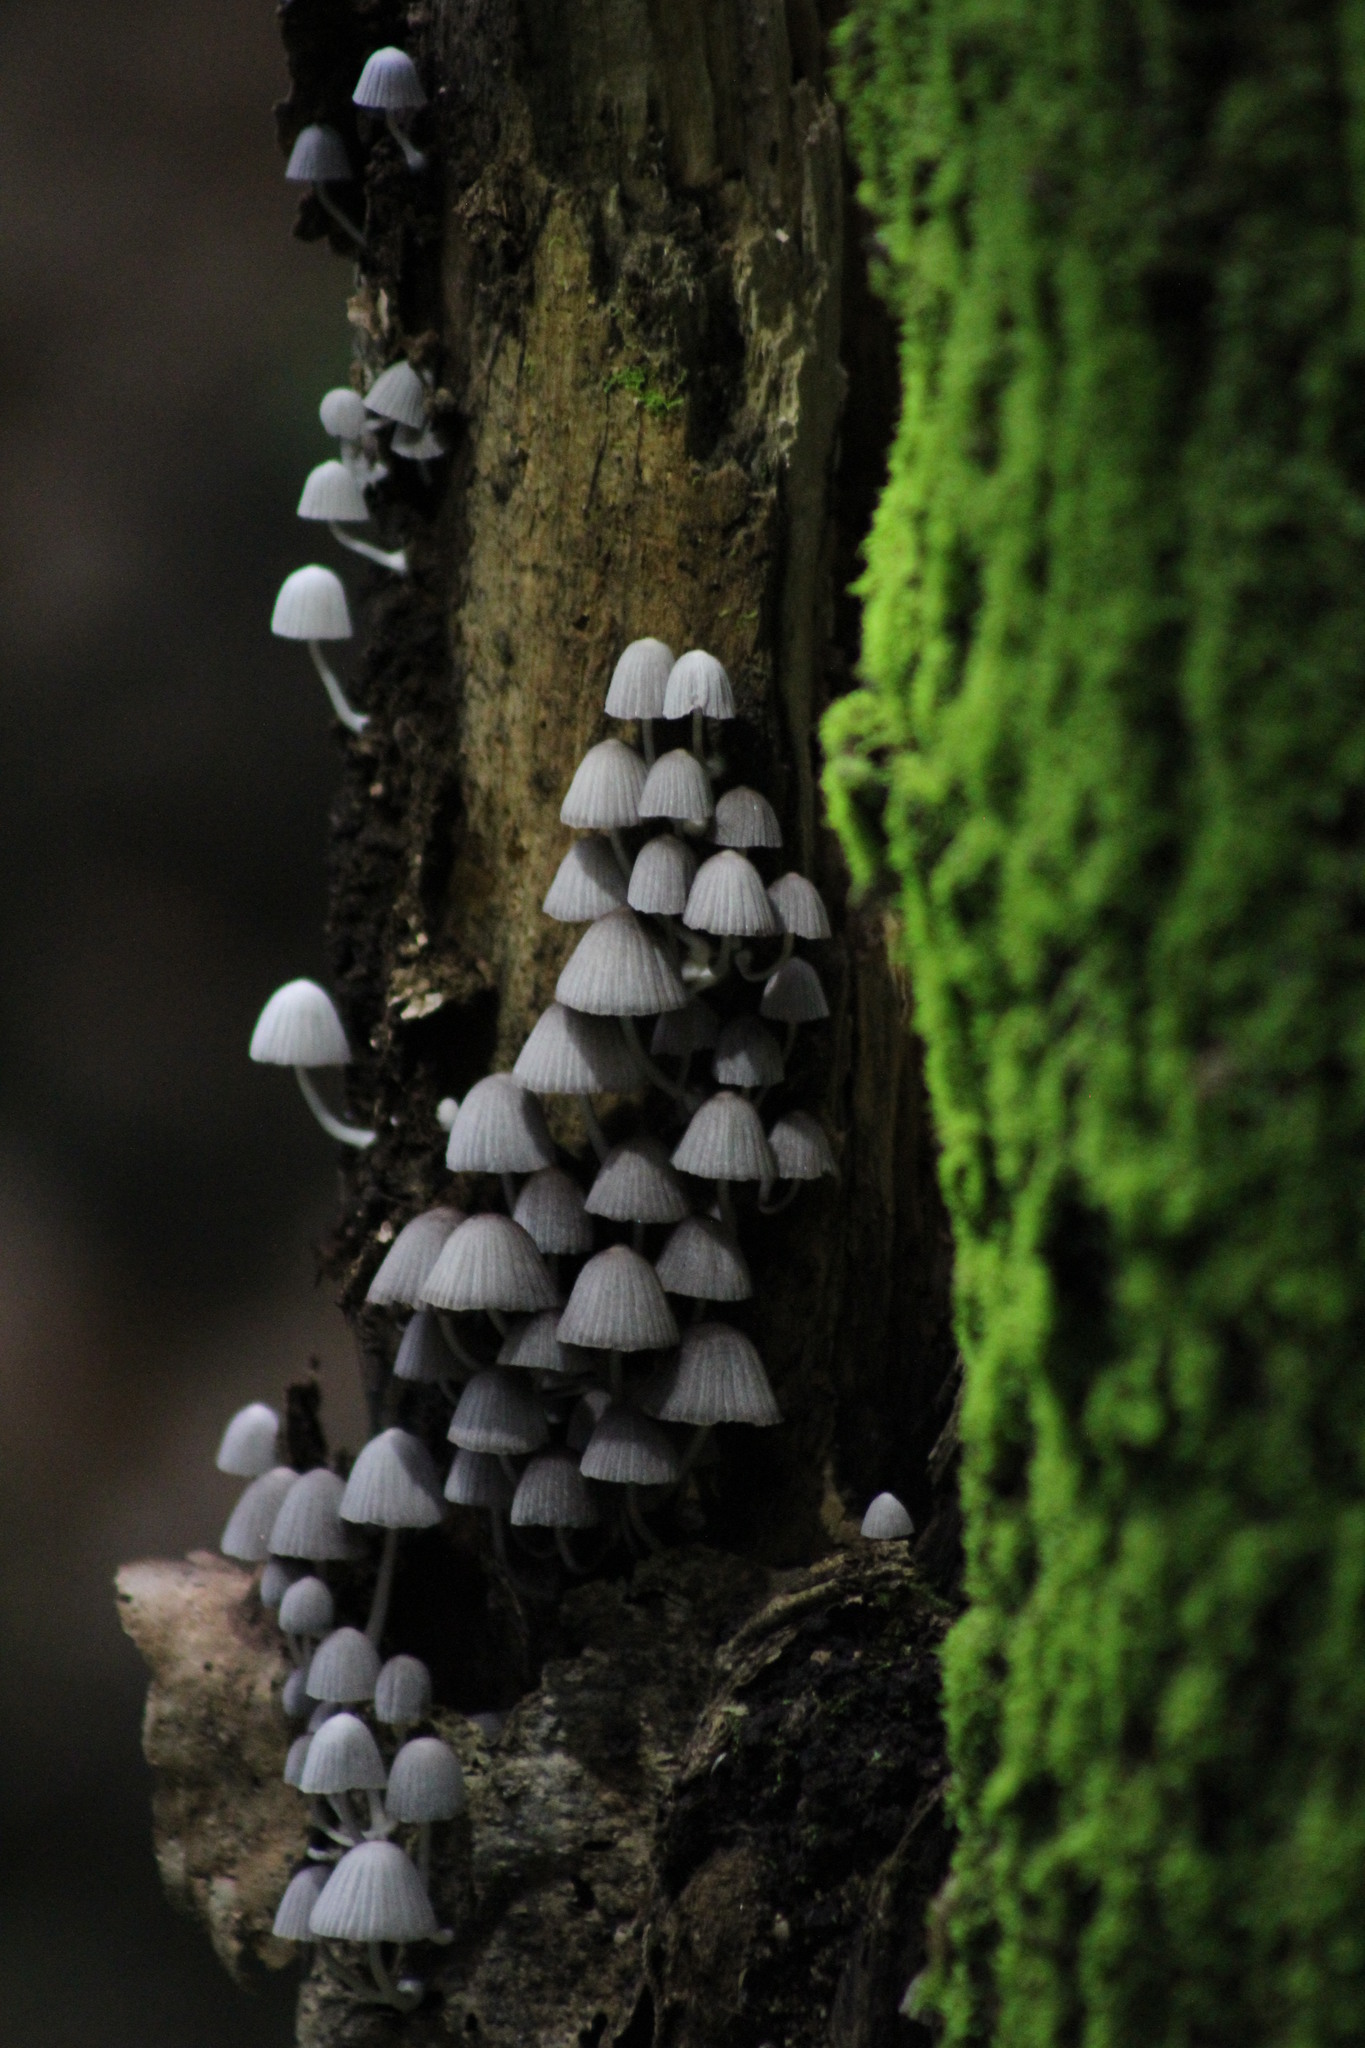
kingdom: Fungi
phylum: Basidiomycota
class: Agaricomycetes
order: Agaricales
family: Psathyrellaceae
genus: Coprinellus
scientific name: Coprinellus disseminatus
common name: Fairies' bonnets
